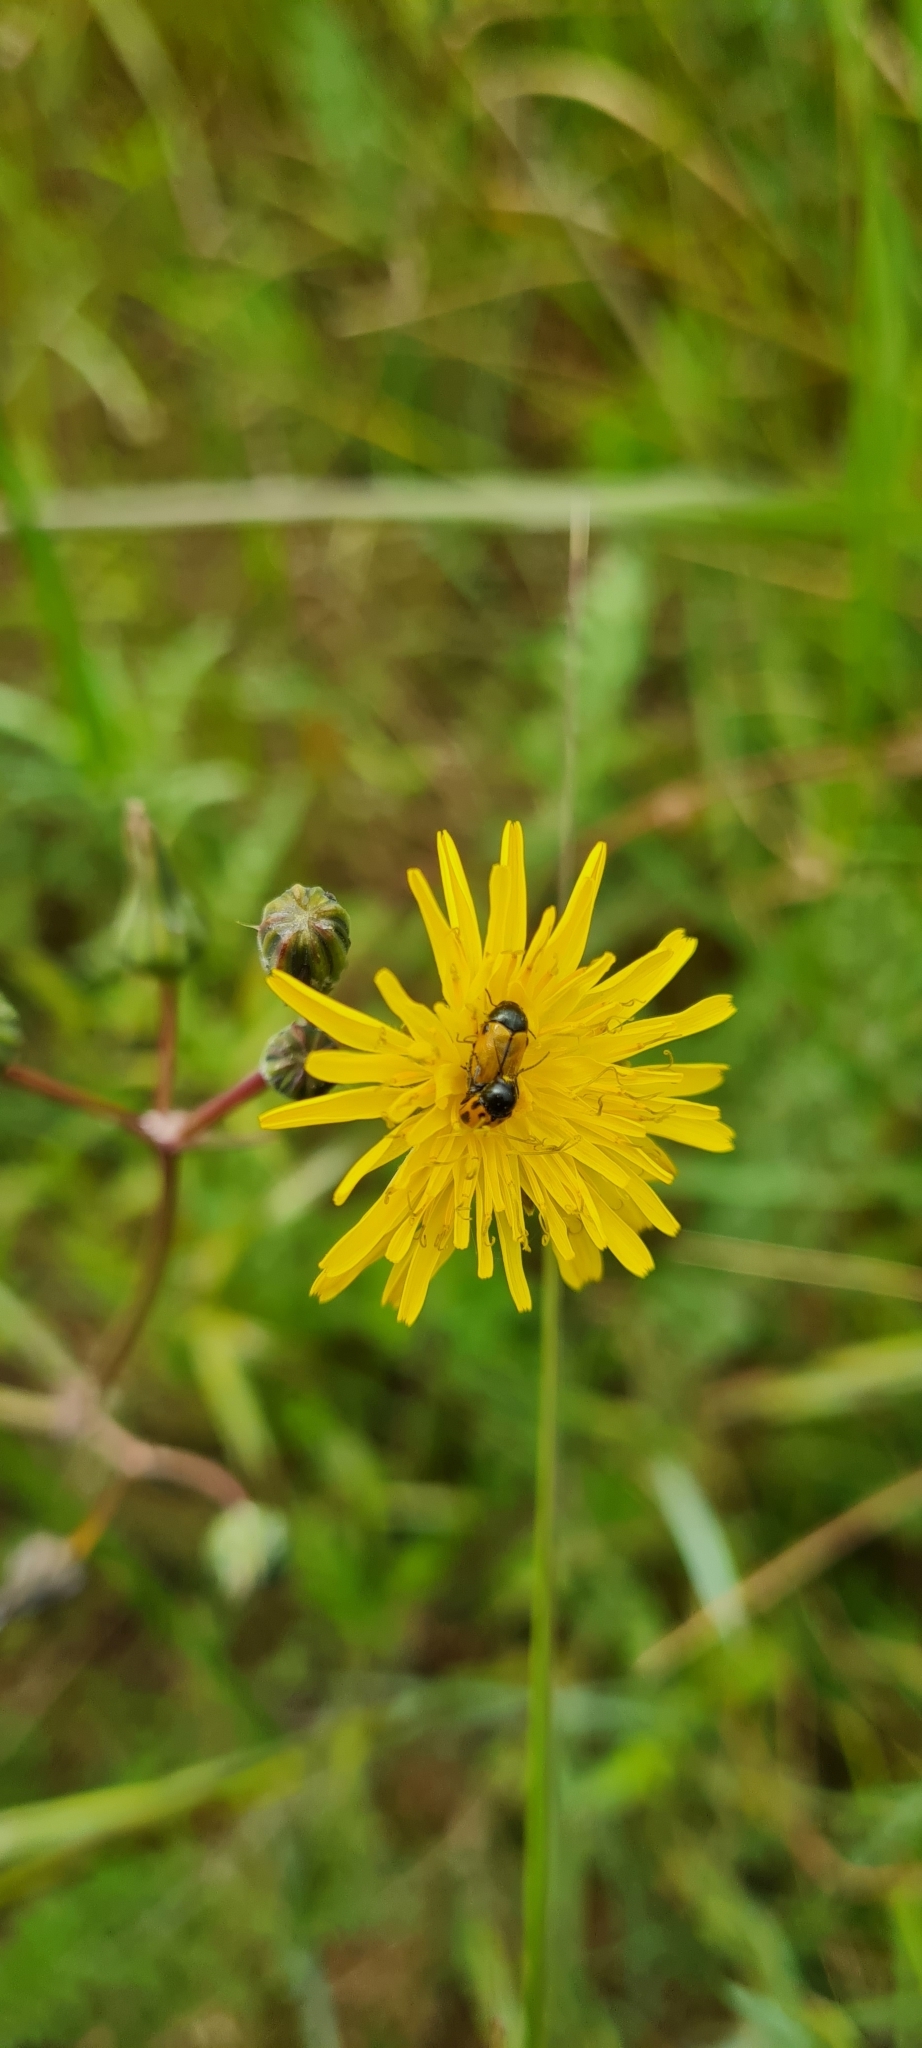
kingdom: Animalia
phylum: Arthropoda
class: Insecta
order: Coleoptera
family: Chrysomelidae
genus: Cryptocephalus
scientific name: Cryptocephalus rugicollis
